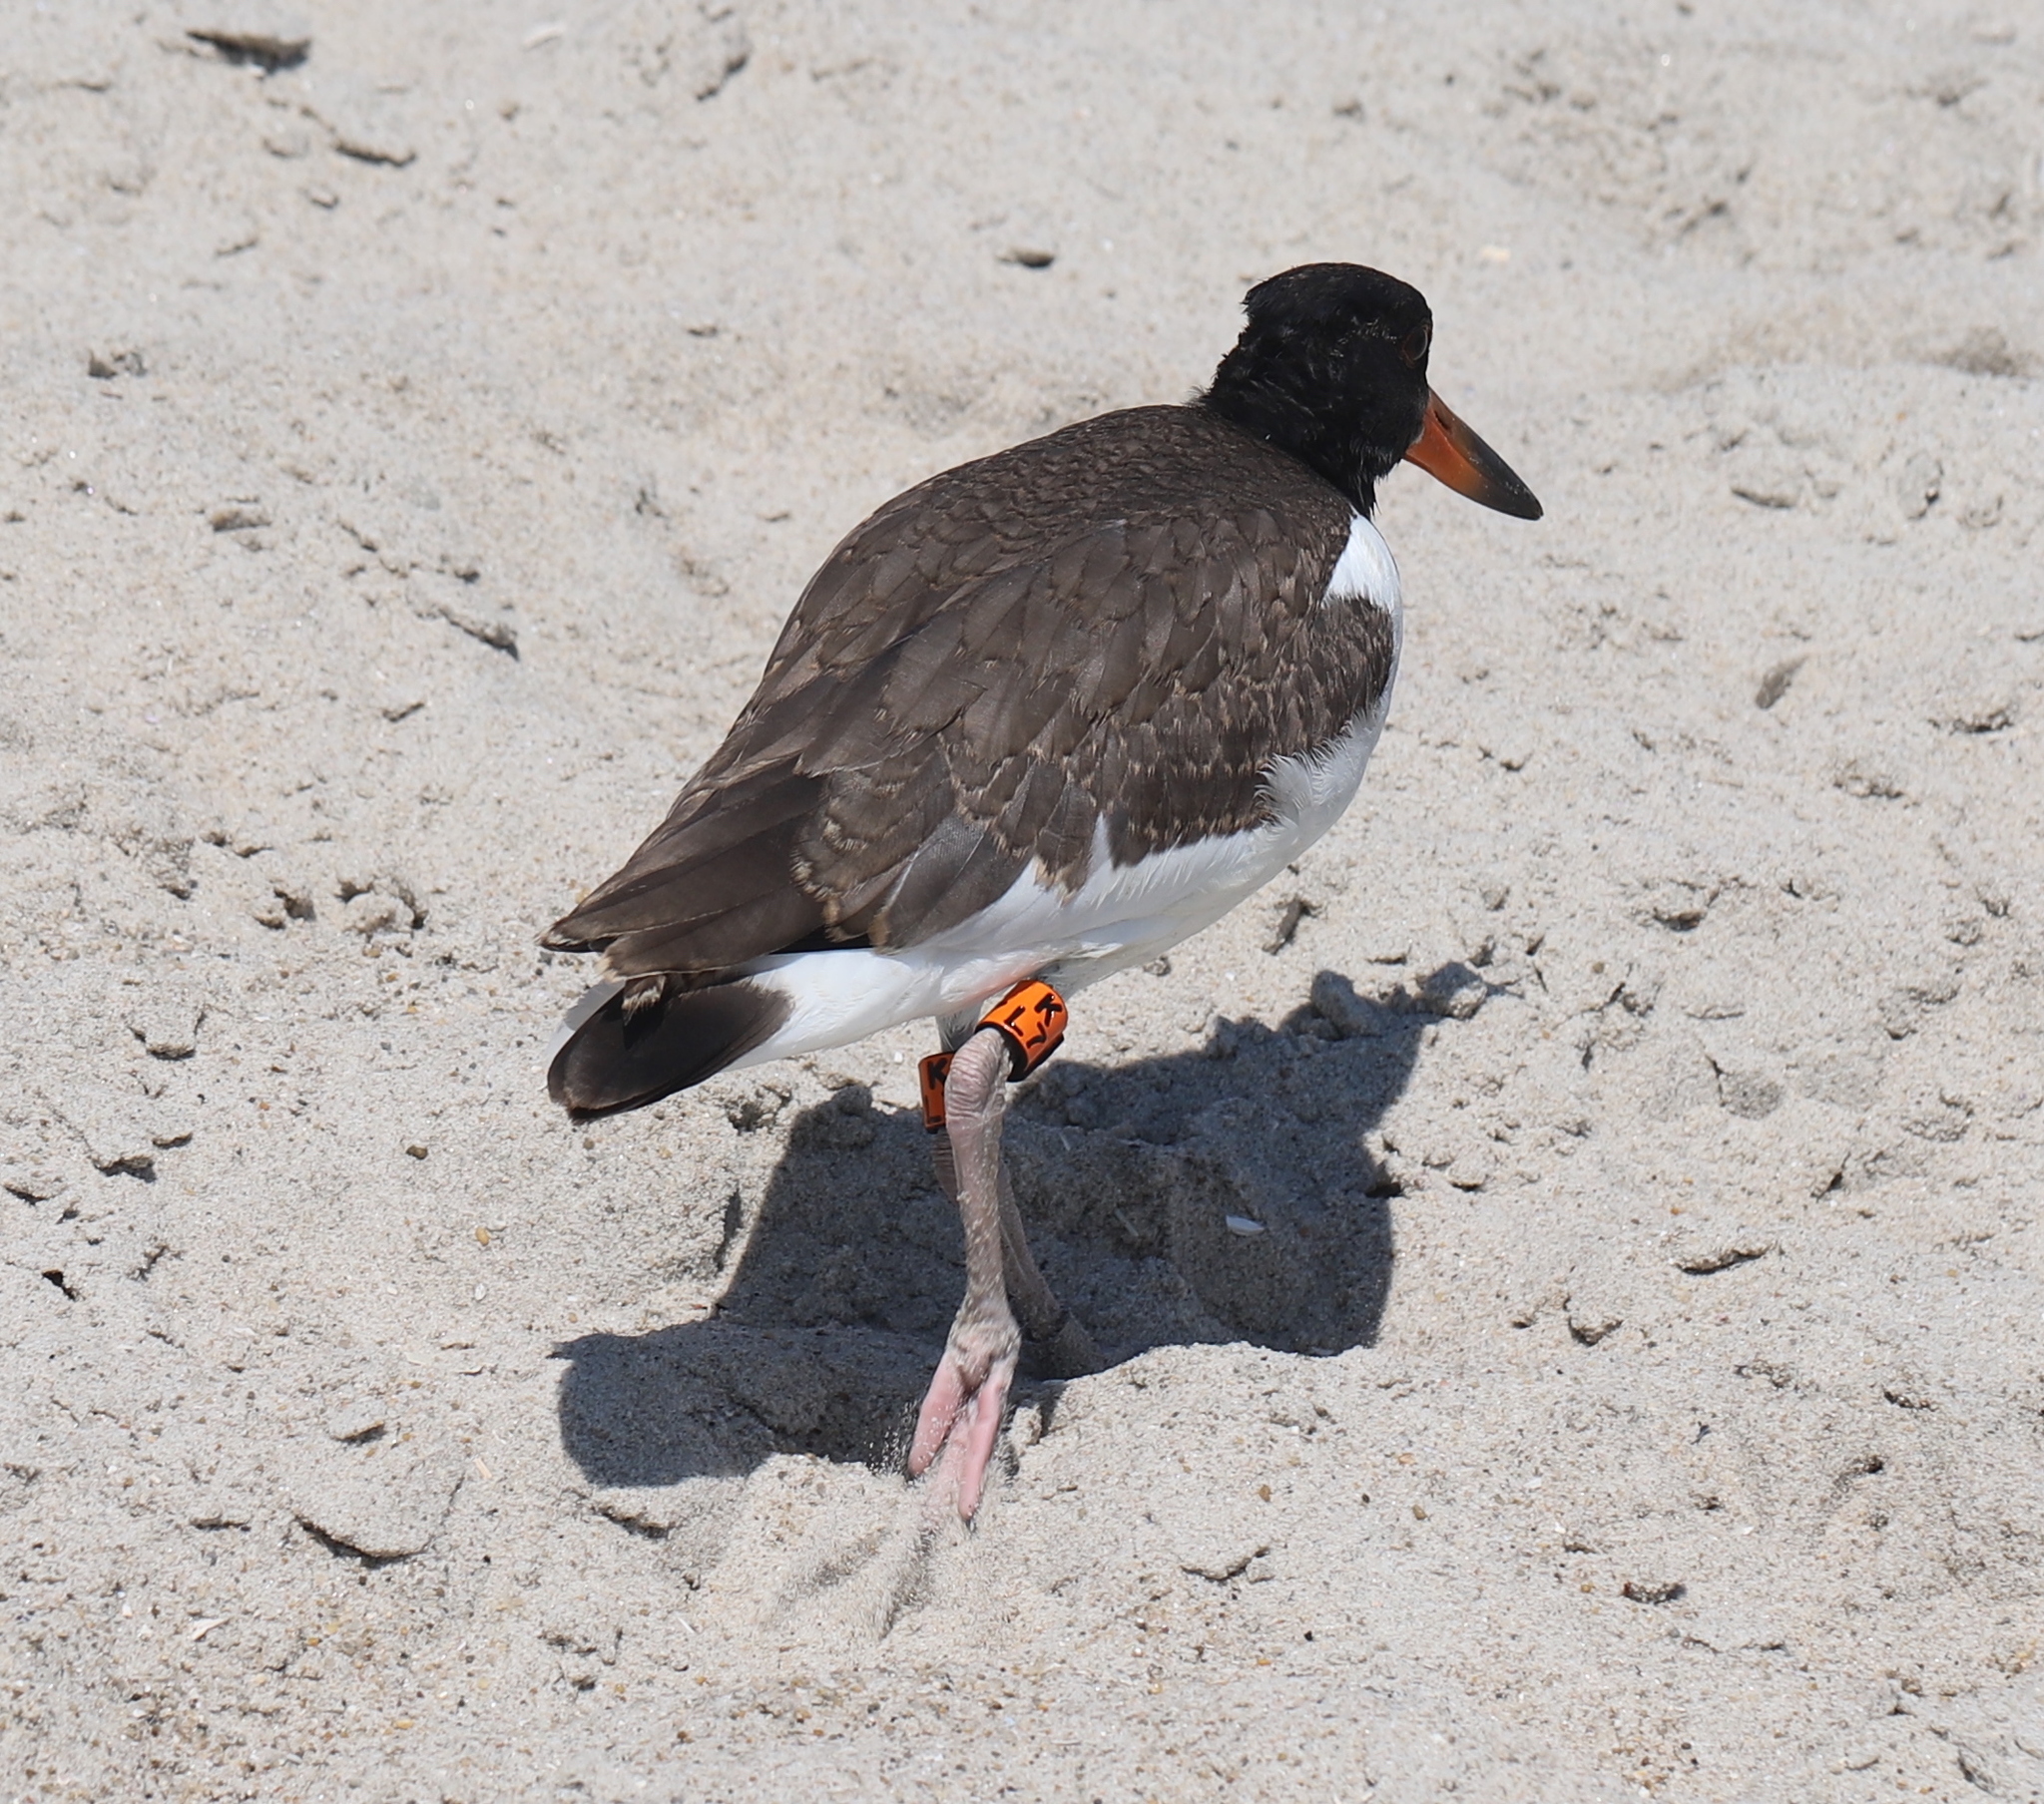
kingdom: Animalia
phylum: Chordata
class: Aves
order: Charadriiformes
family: Haematopodidae
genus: Haematopus
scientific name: Haematopus palliatus
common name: American oystercatcher
